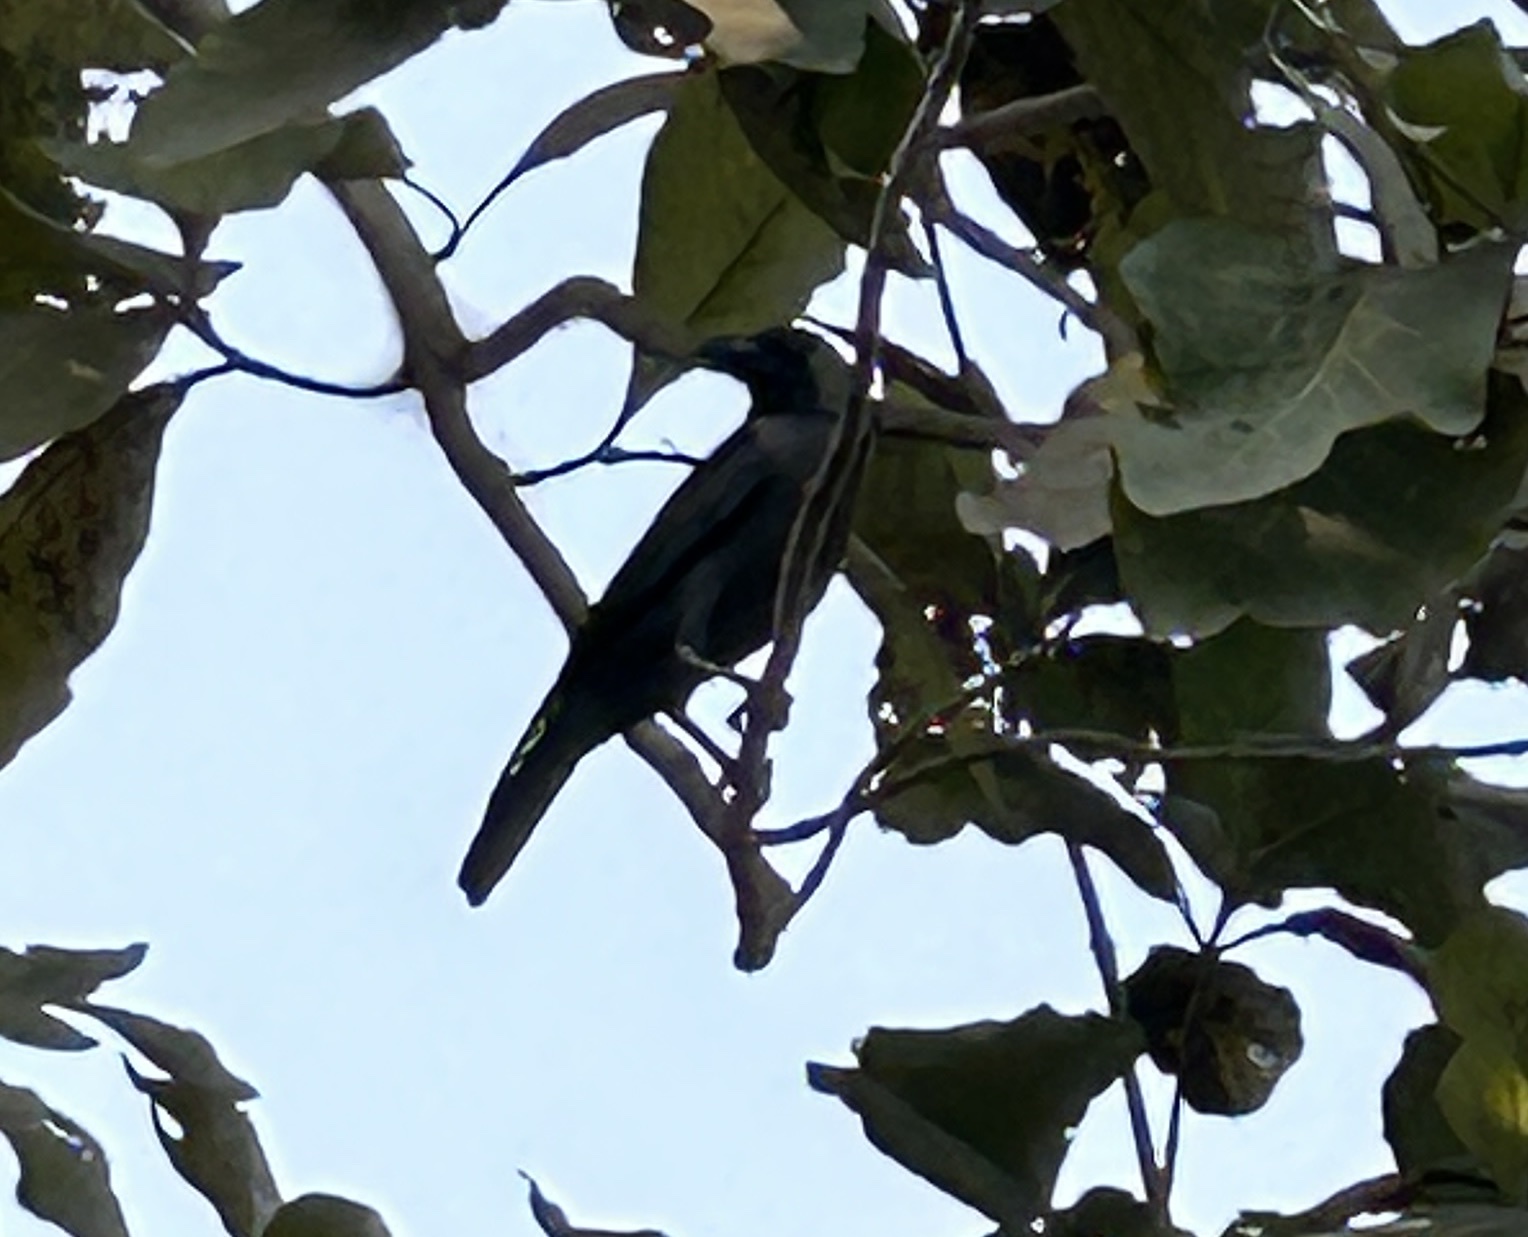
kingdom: Animalia
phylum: Chordata
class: Aves
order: Passeriformes
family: Corvidae
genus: Corvus
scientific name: Corvus splendens
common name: House crow
